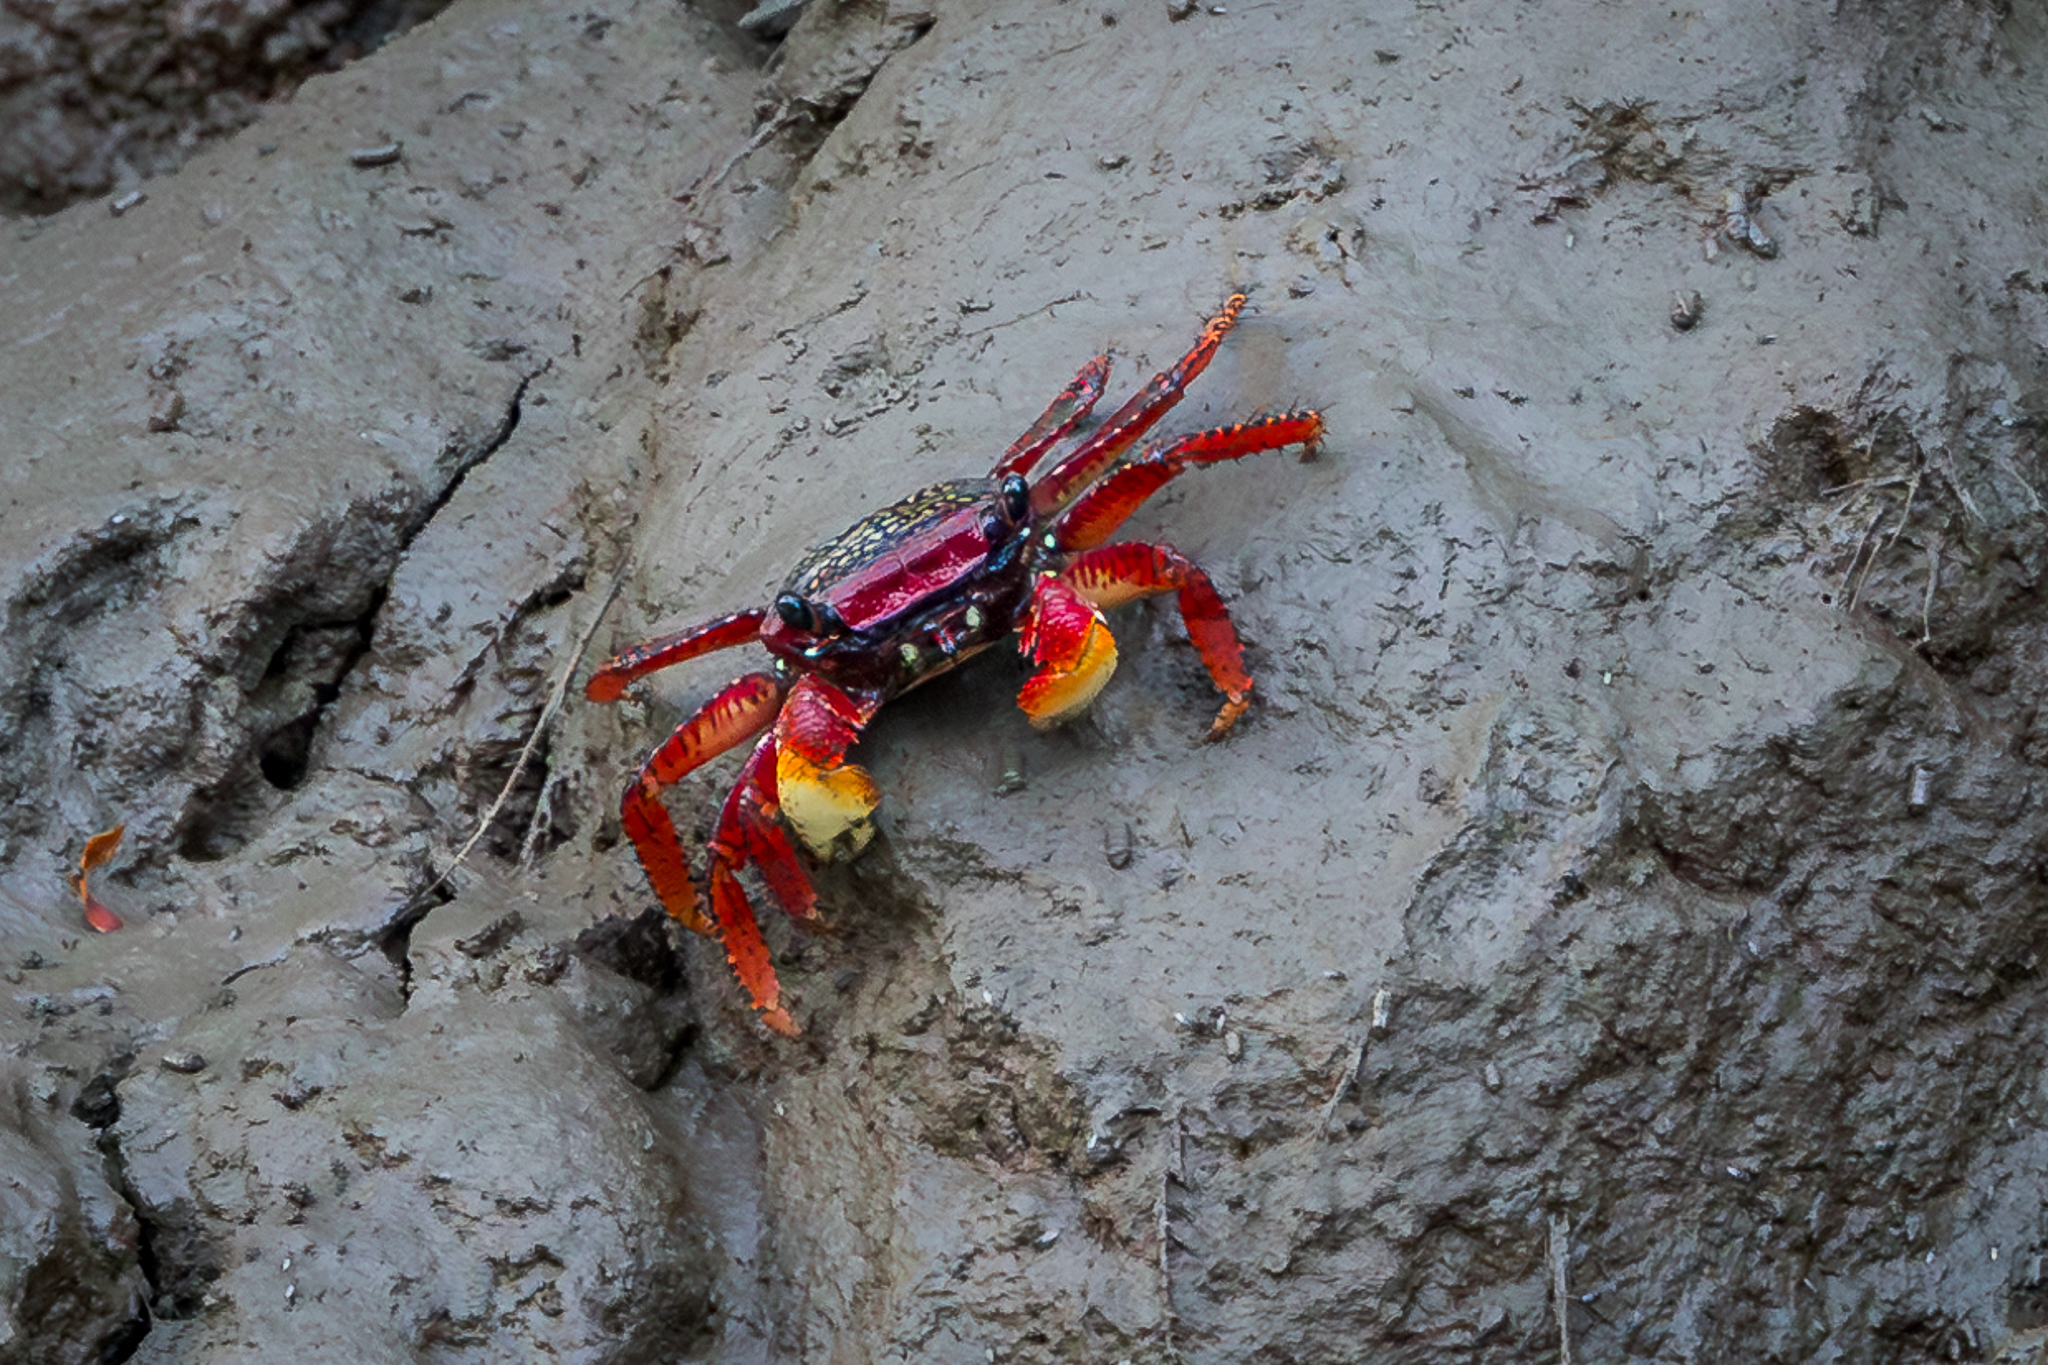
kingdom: Animalia
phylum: Arthropoda
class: Malacostraca
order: Decapoda
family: Grapsidae
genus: Goniopsis
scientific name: Goniopsis pulchra
